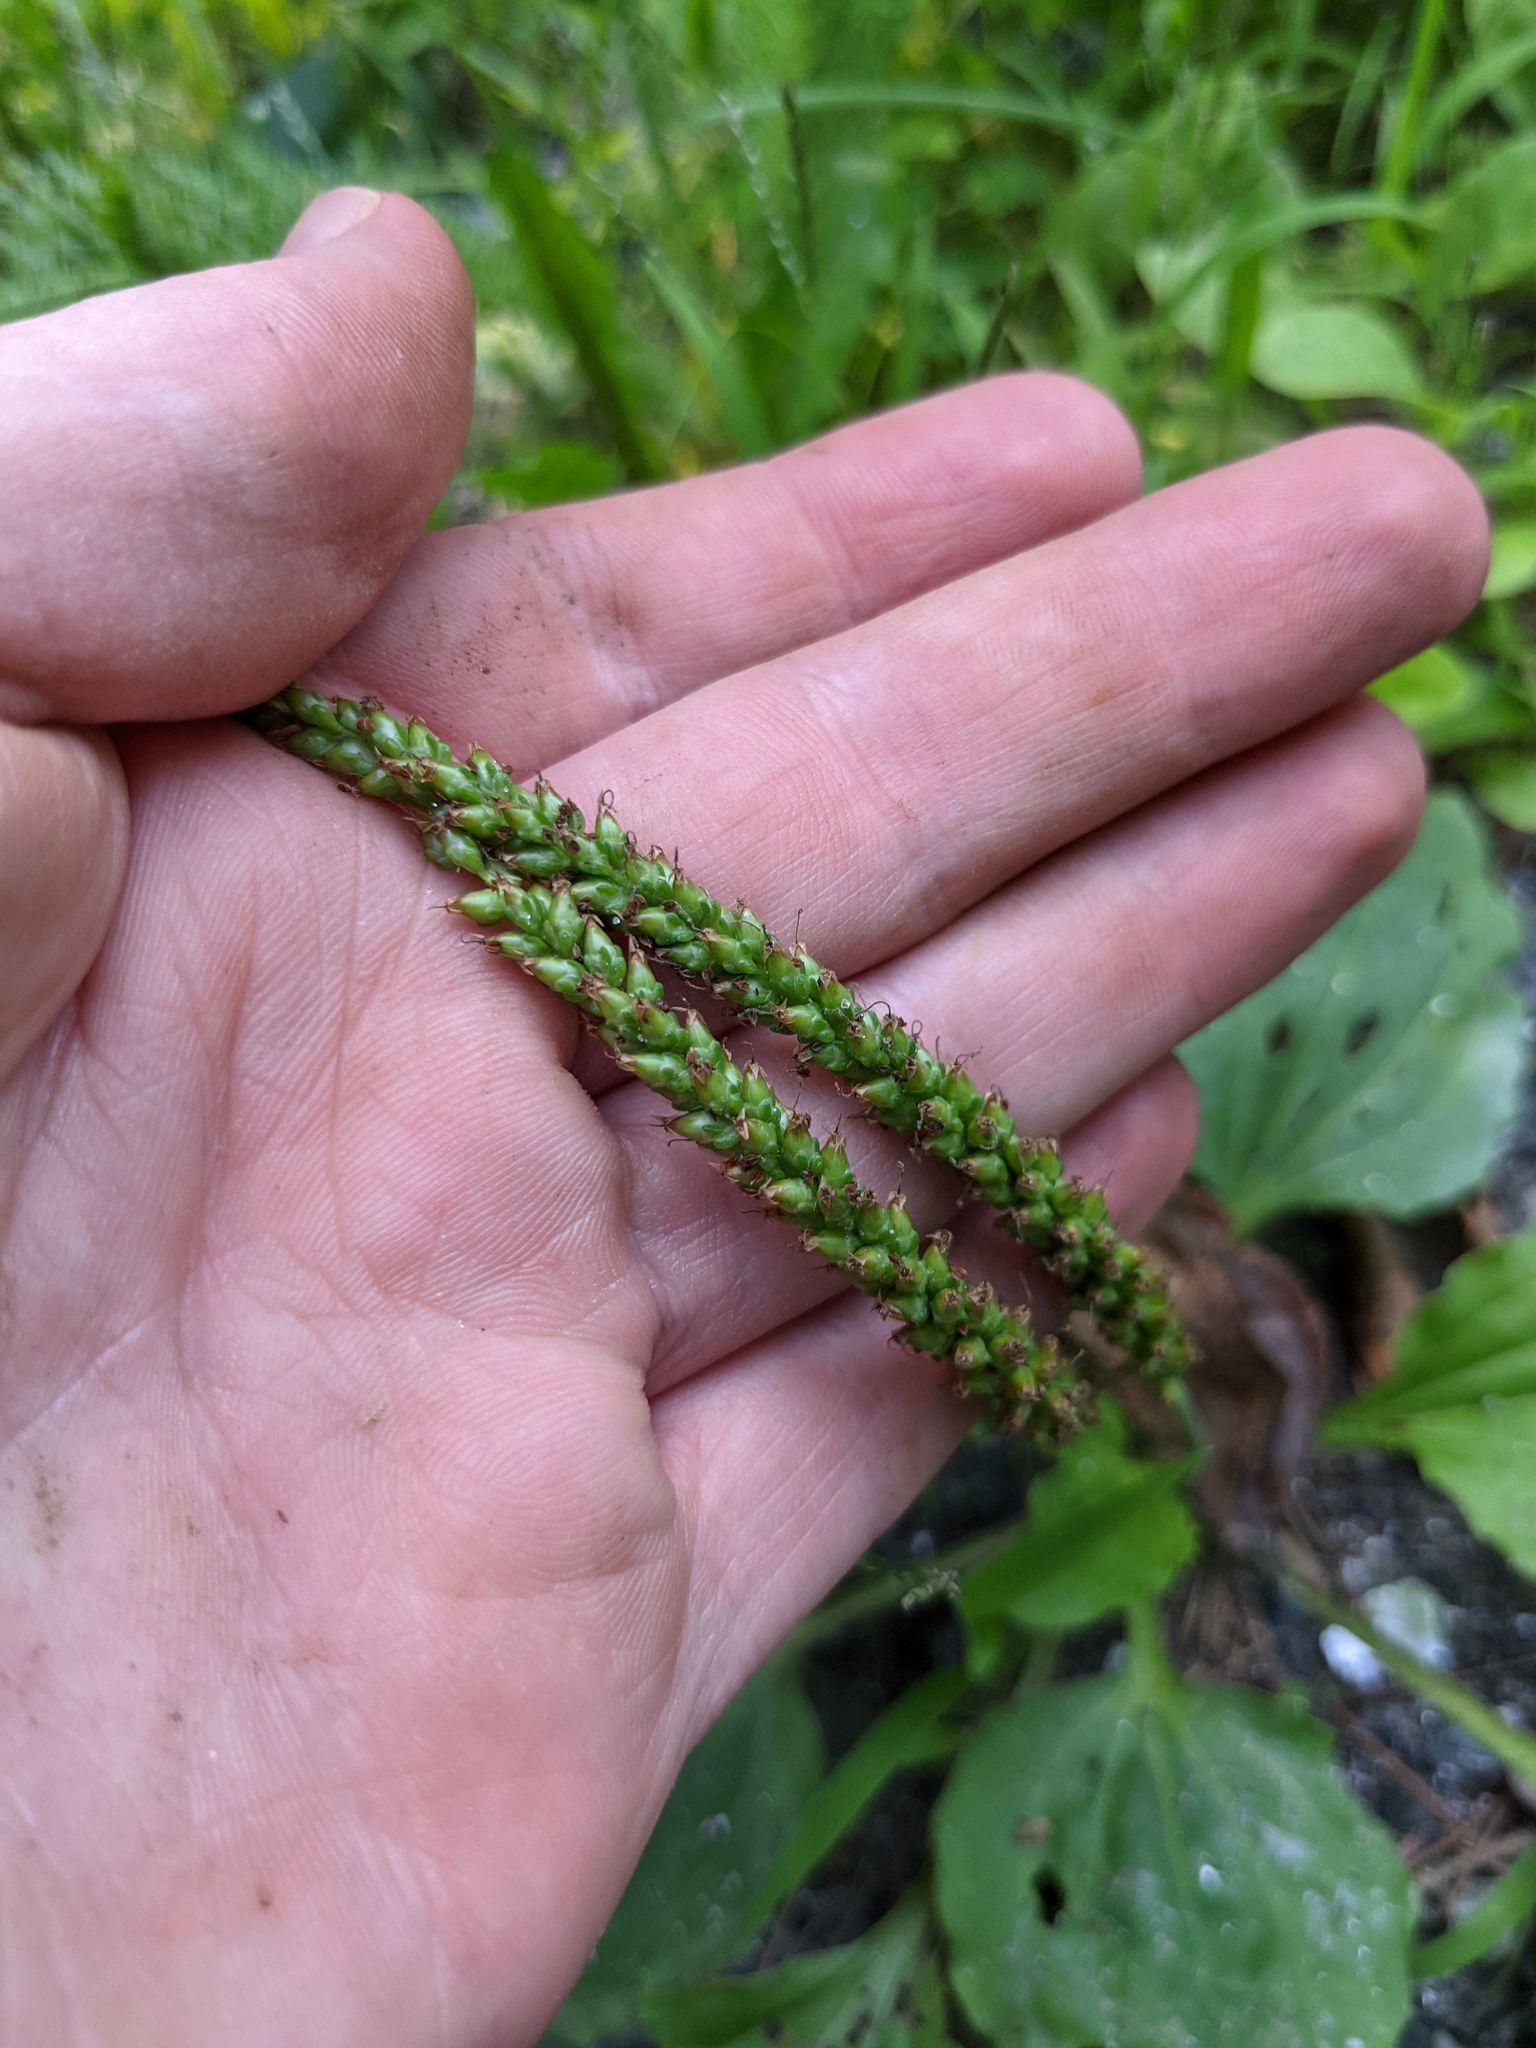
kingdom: Plantae
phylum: Tracheophyta
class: Magnoliopsida
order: Lamiales
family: Plantaginaceae
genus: Plantago
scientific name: Plantago rugelii
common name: American plantain
